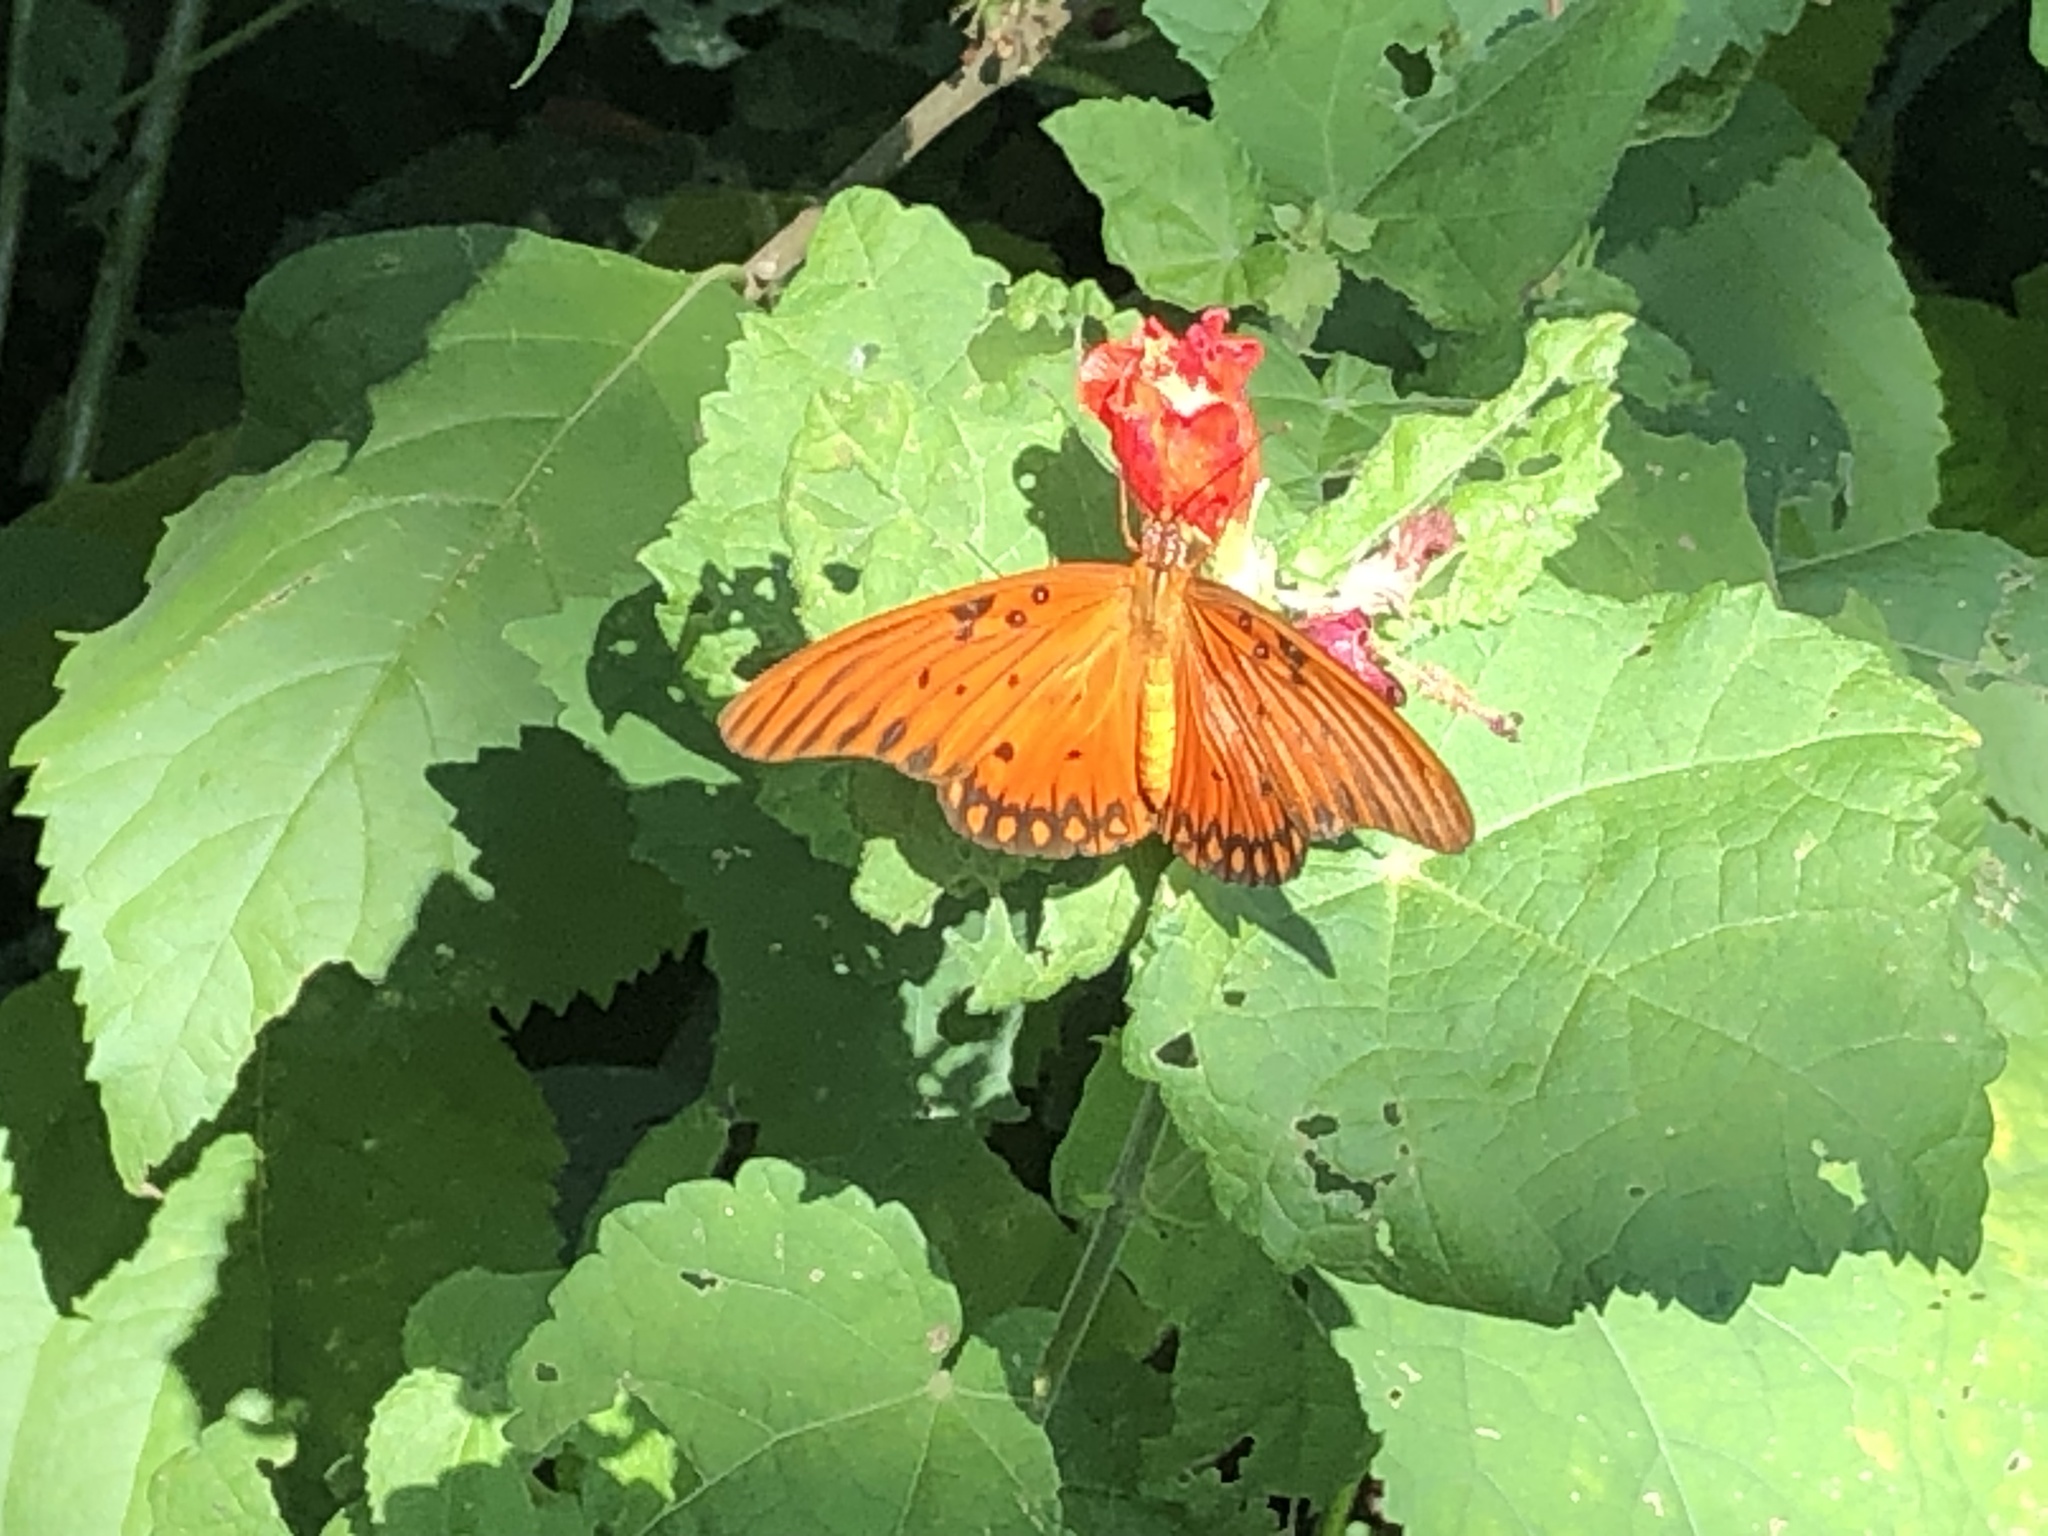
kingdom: Animalia
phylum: Arthropoda
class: Insecta
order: Lepidoptera
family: Nymphalidae
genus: Dione
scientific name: Dione vanillae
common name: Gulf fritillary
